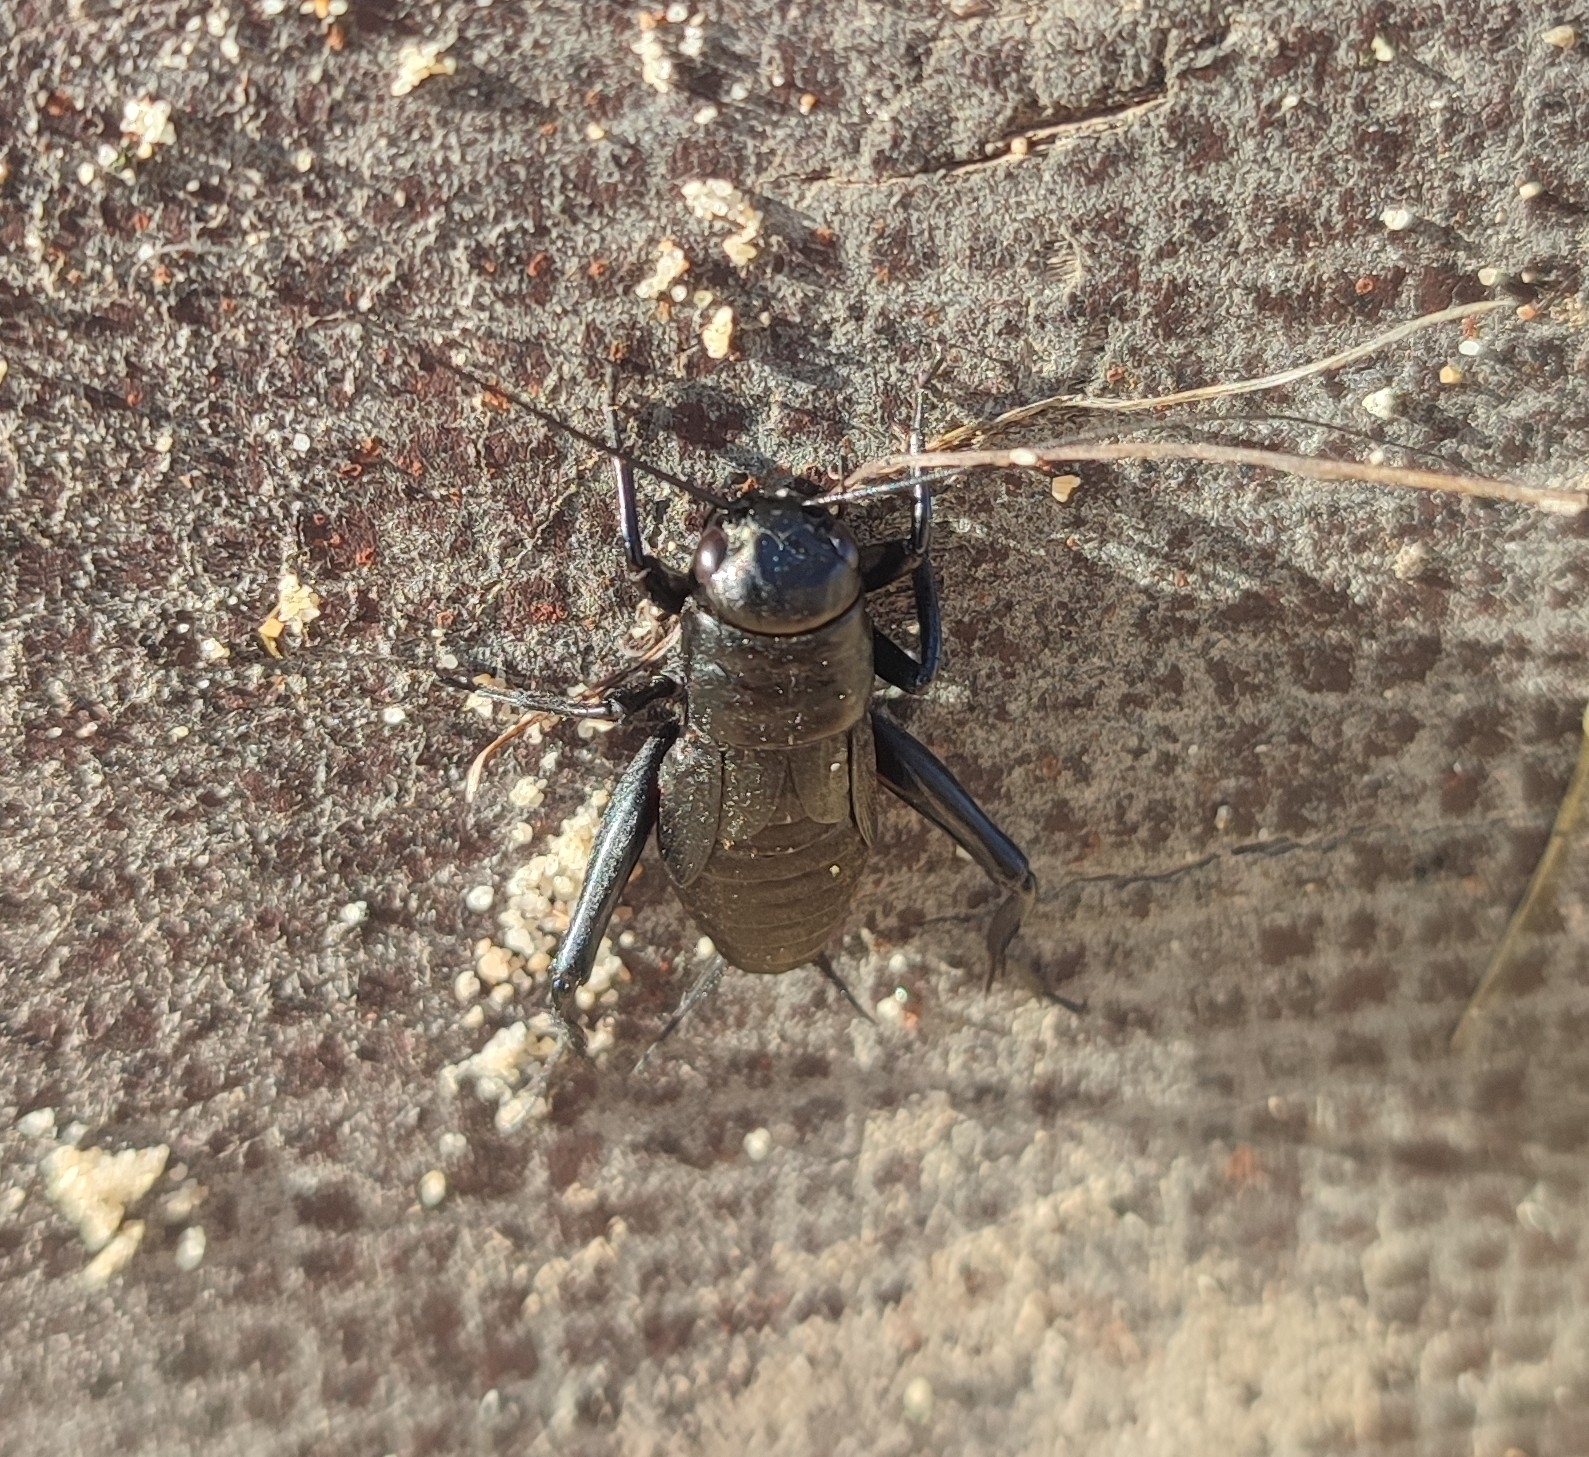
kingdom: Animalia
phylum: Arthropoda
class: Insecta
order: Orthoptera
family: Gryllidae
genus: Gryllus
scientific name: Gryllus bimaculatus
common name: Two-spotted cricket
